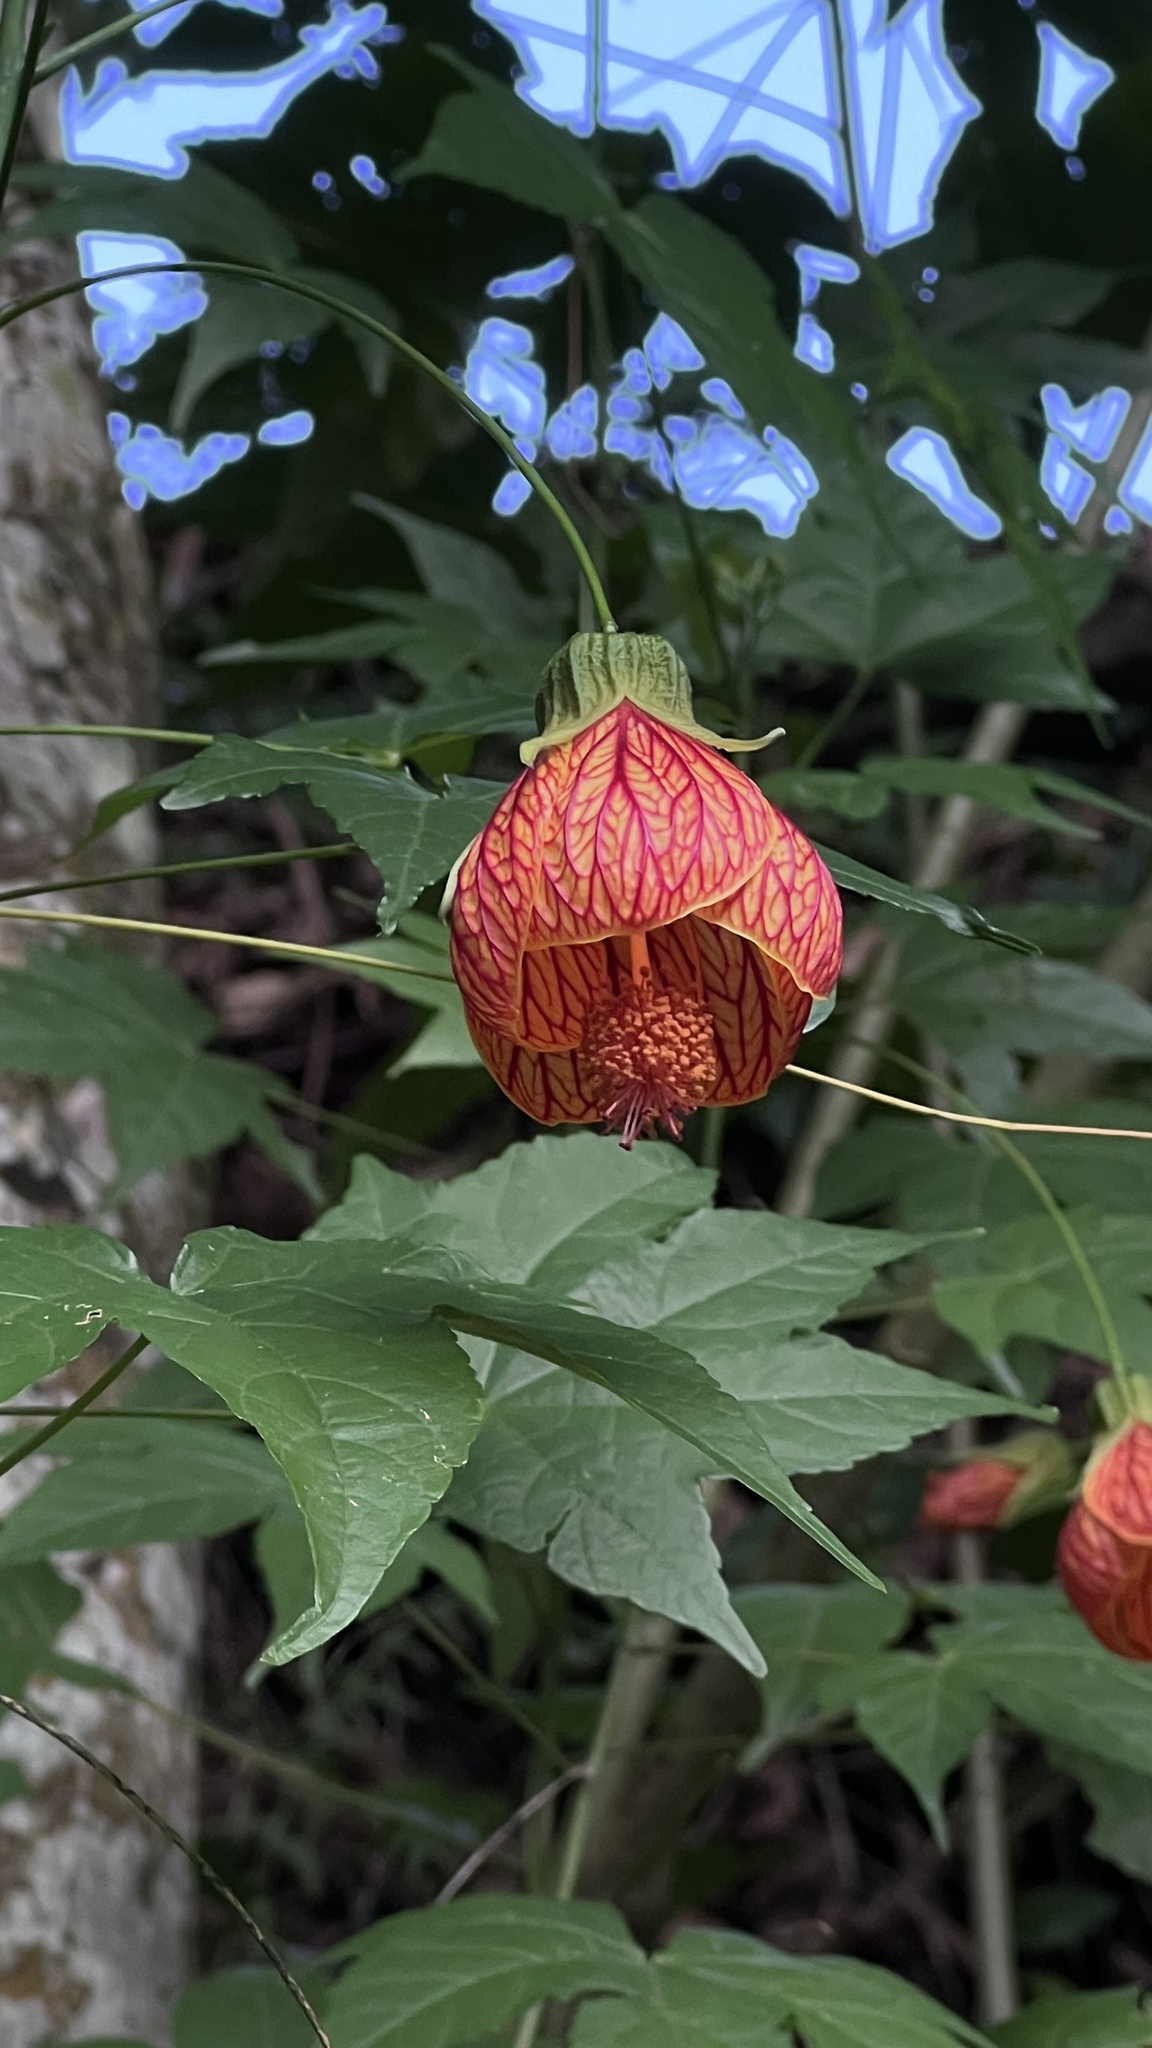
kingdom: Plantae
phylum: Tracheophyta
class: Magnoliopsida
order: Malvales
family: Malvaceae
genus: Callianthe
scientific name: Callianthe picta
